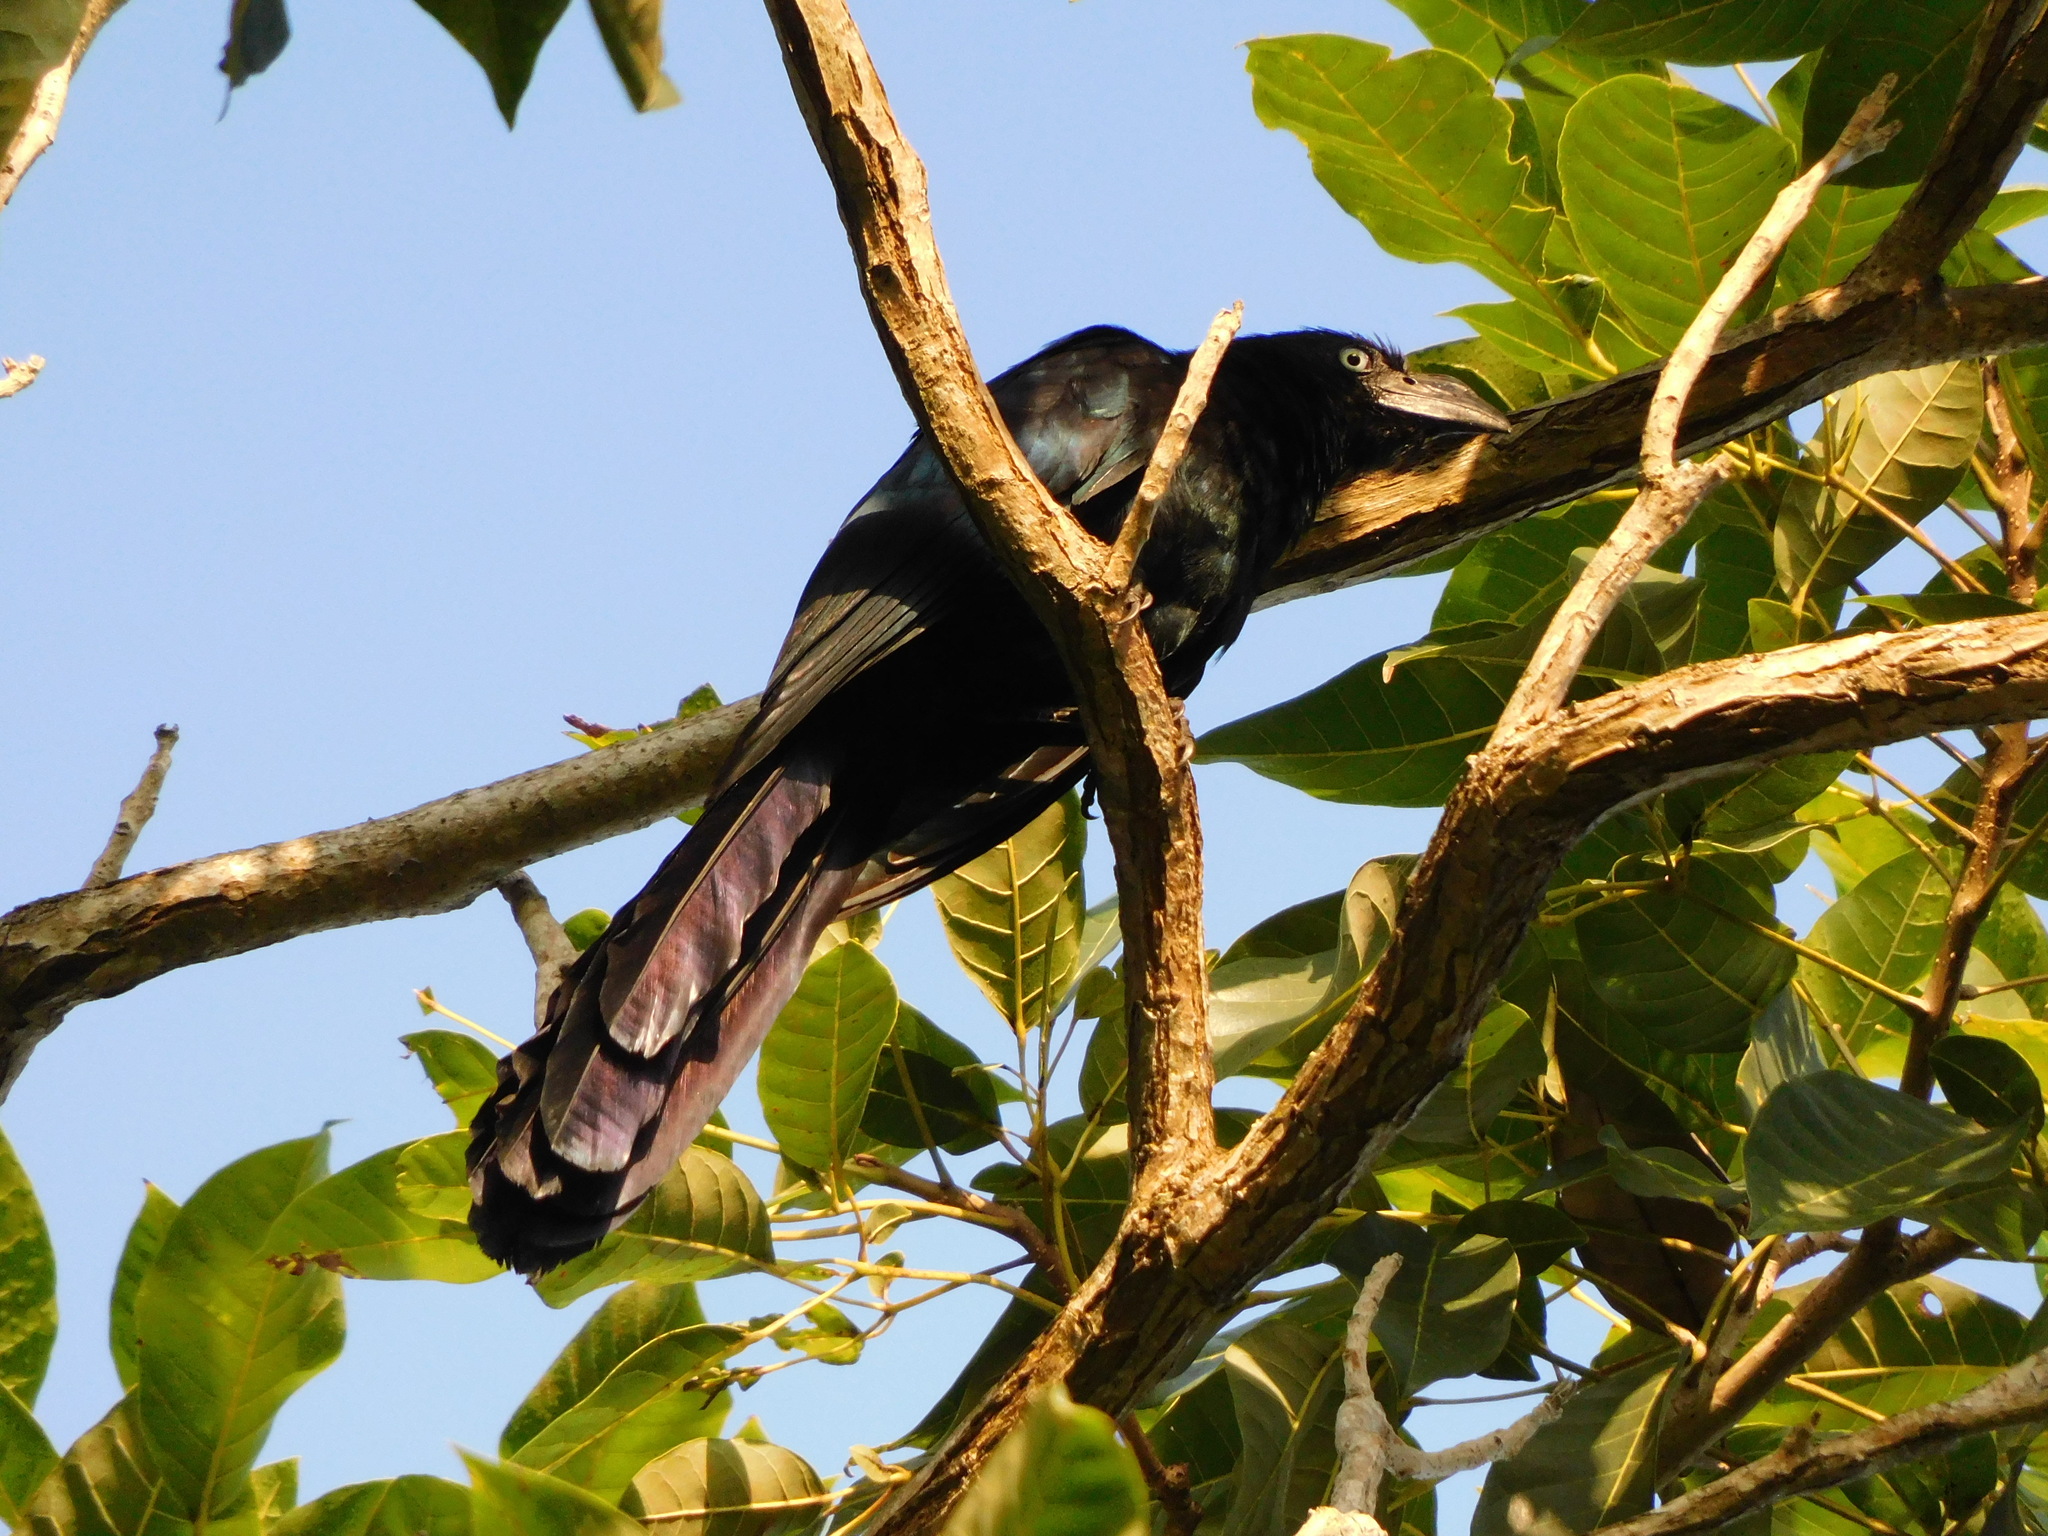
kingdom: Animalia
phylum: Chordata
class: Aves
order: Cuculiformes
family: Cuculidae
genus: Crotophaga
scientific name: Crotophaga major
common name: Greater ani
